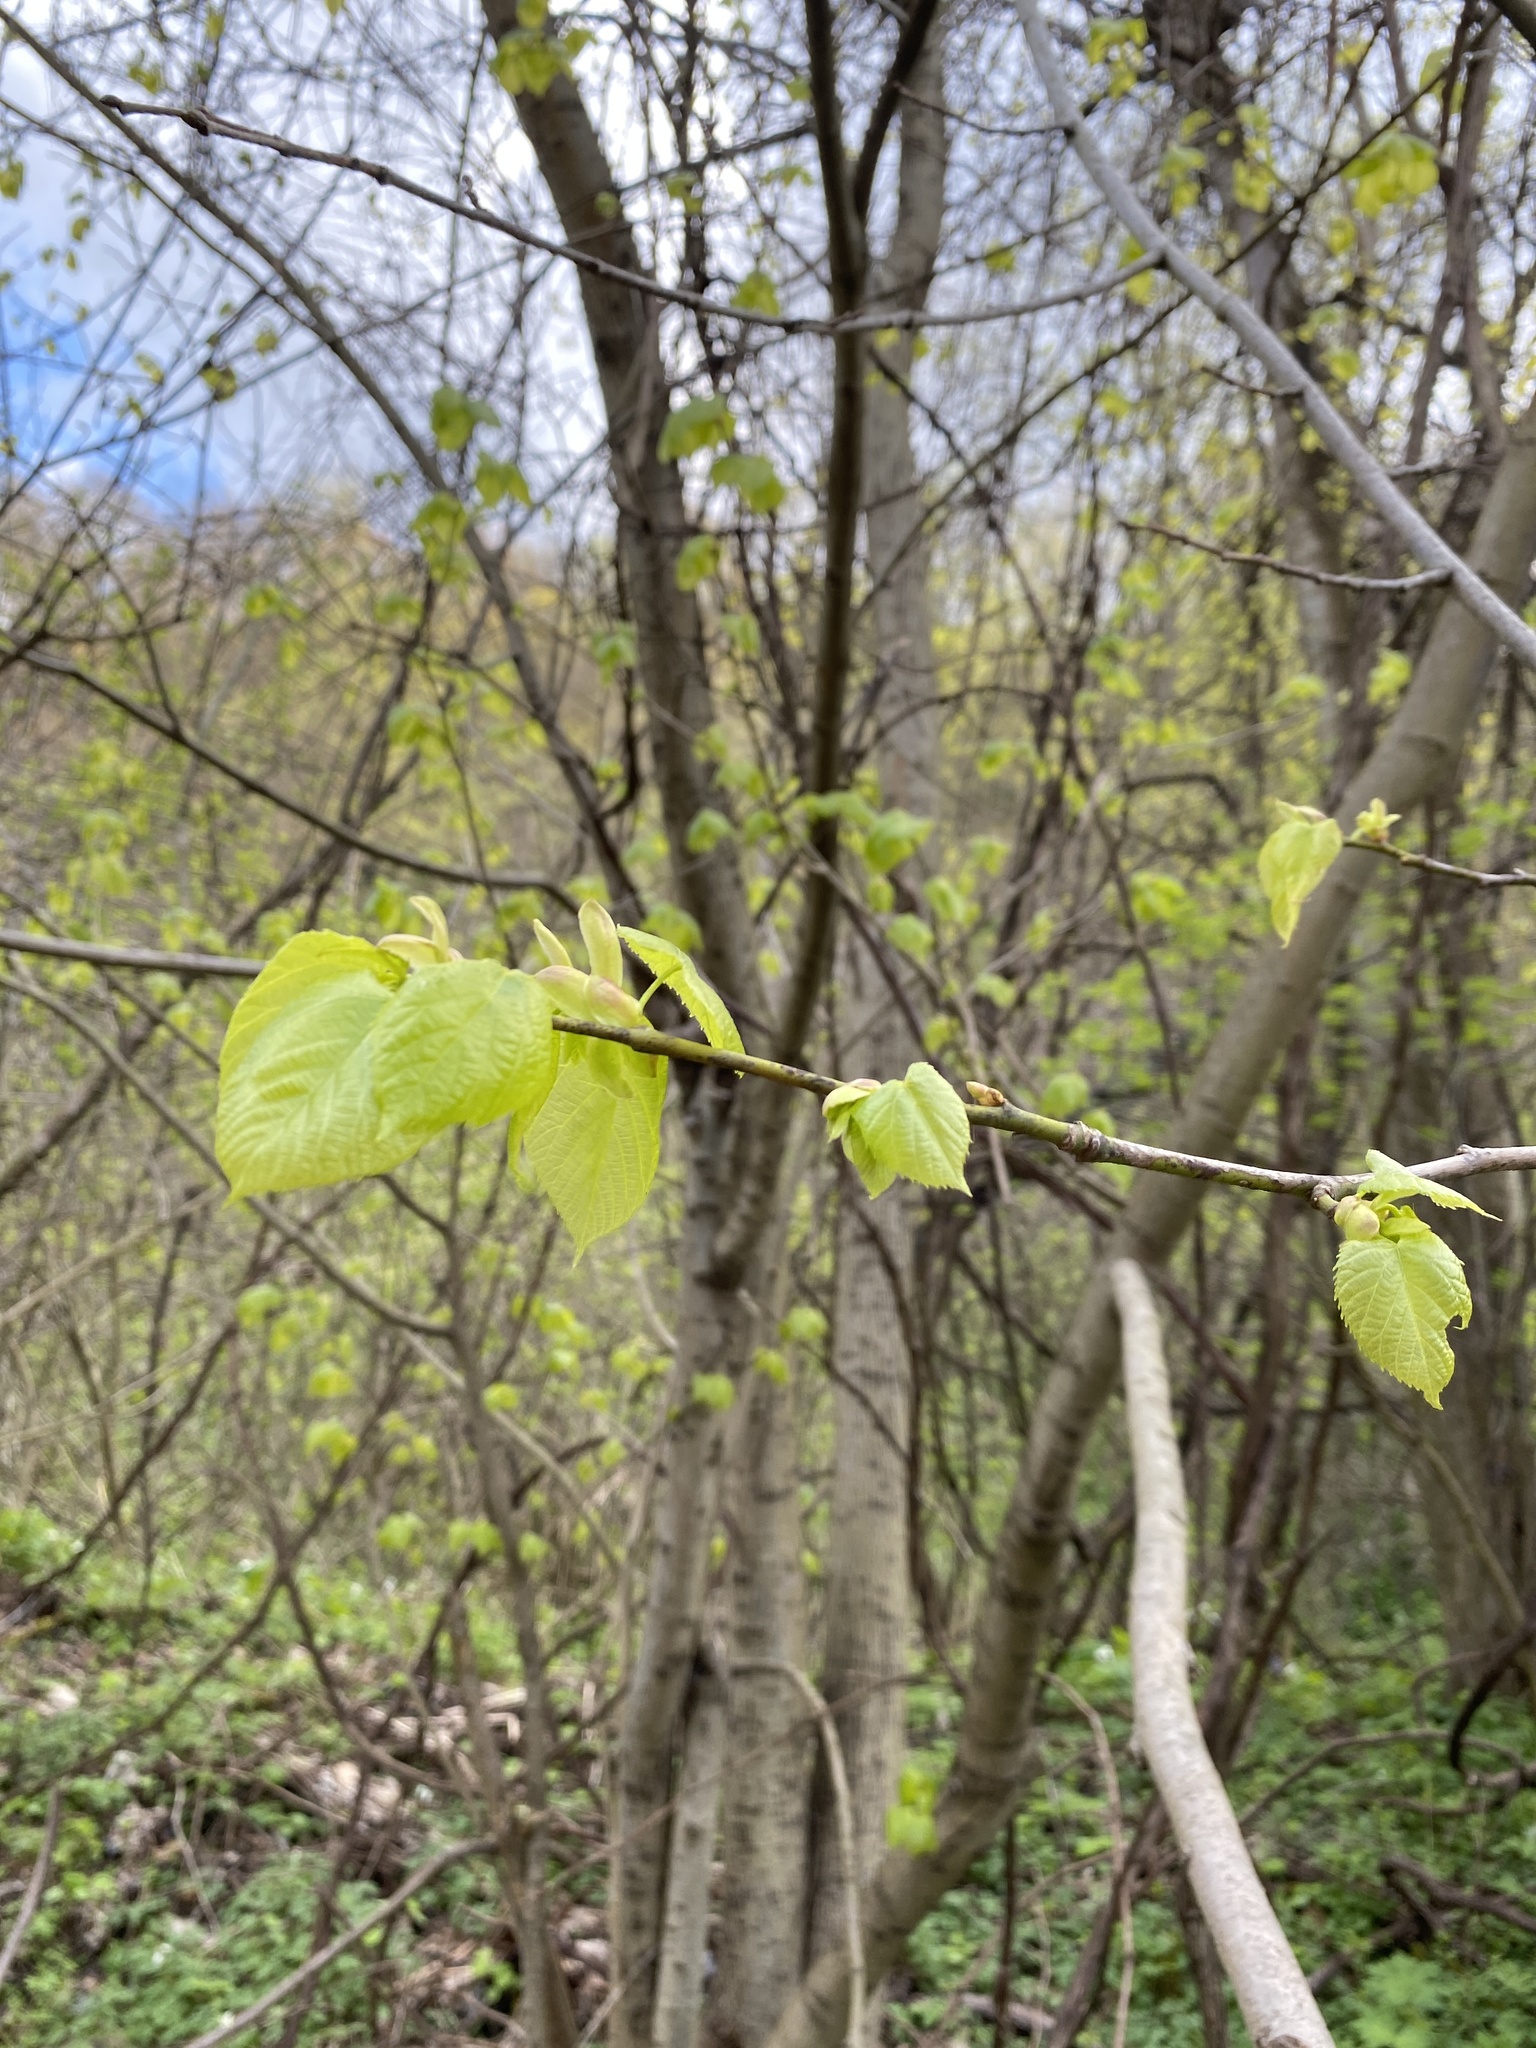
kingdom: Plantae
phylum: Tracheophyta
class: Magnoliopsida
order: Malvales
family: Malvaceae
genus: Tilia
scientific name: Tilia americana
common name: Basswood
